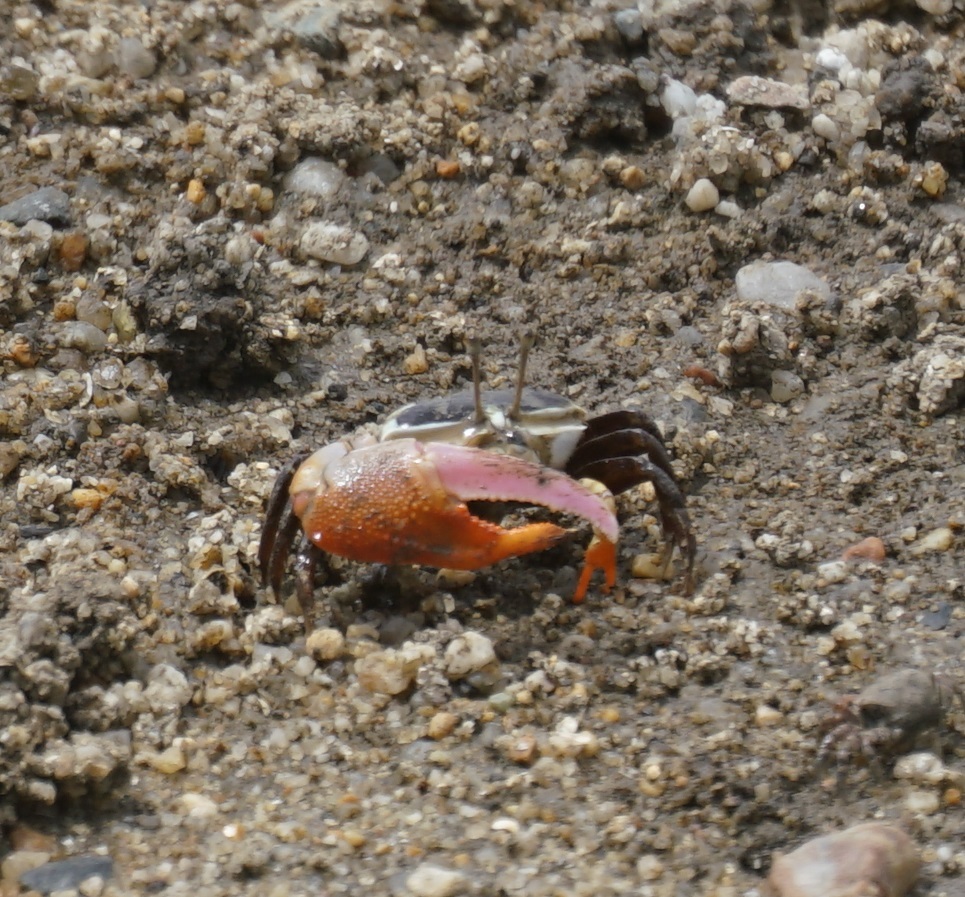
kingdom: Animalia
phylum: Arthropoda
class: Malacostraca
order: Decapoda
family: Ocypodidae
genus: Gelasimus
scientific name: Gelasimus vomeris
